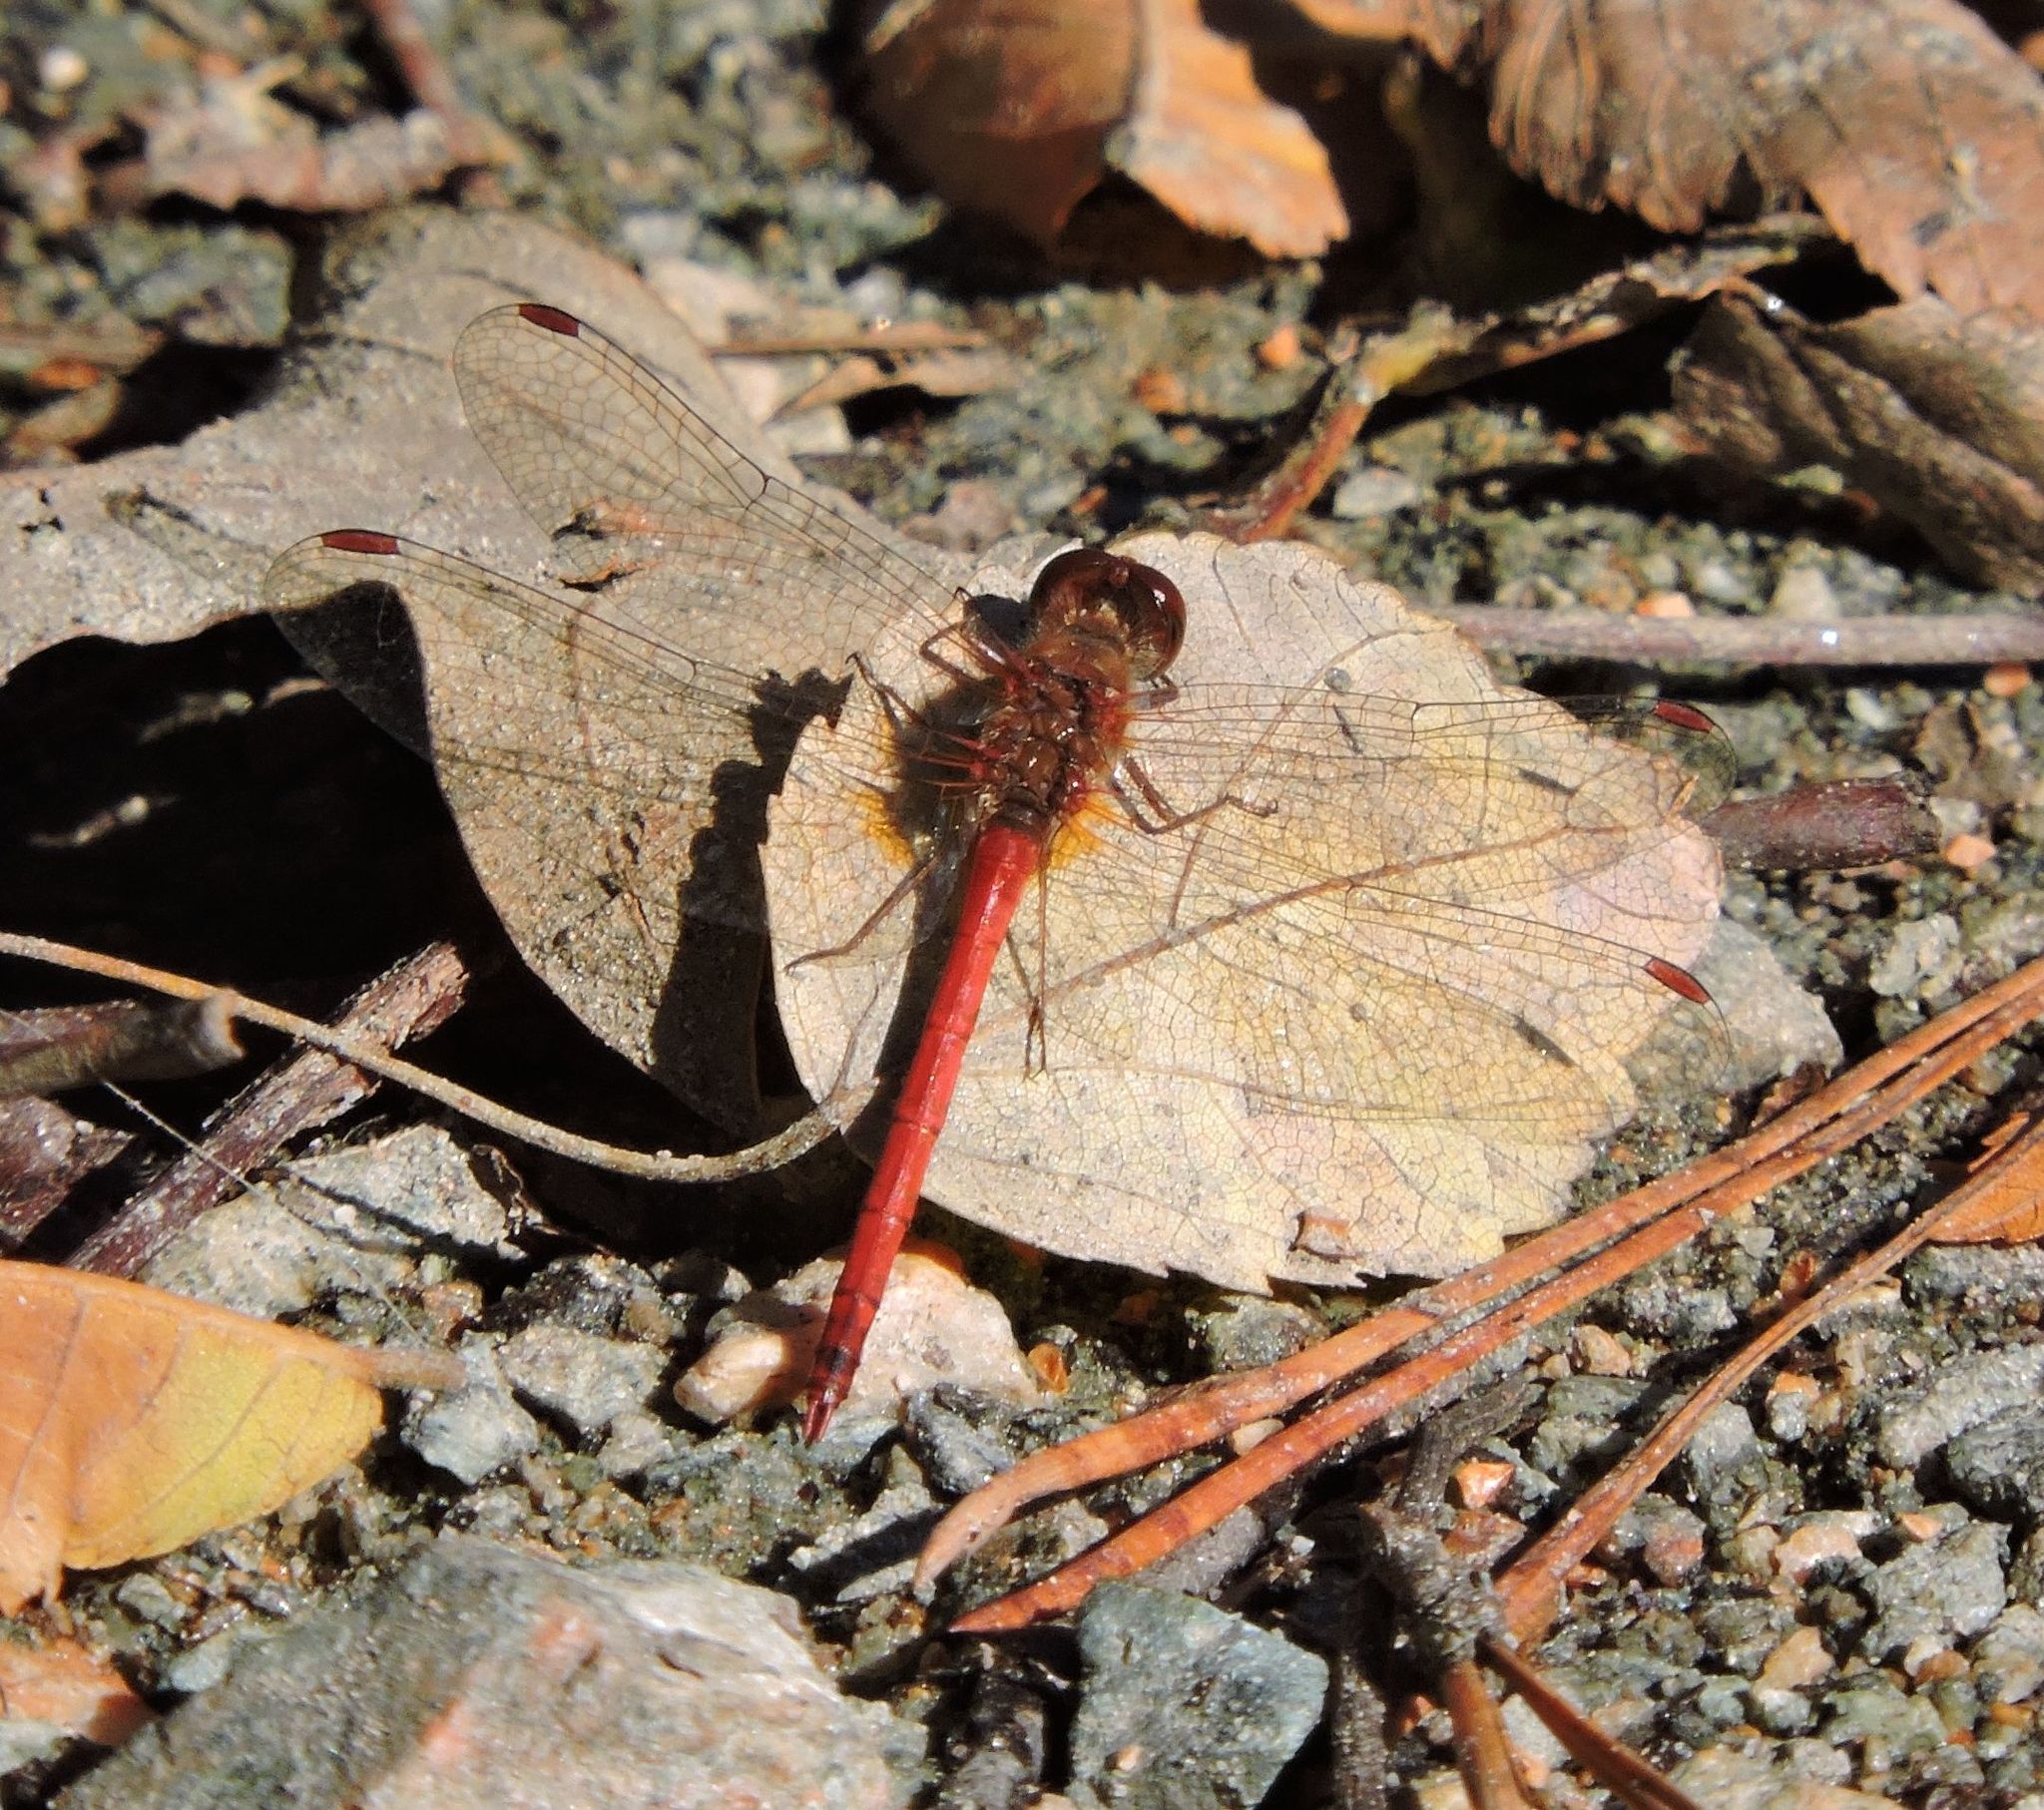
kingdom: Animalia
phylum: Arthropoda
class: Insecta
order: Odonata
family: Libellulidae
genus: Sympetrum
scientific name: Sympetrum vicinum
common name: Autumn meadowhawk
